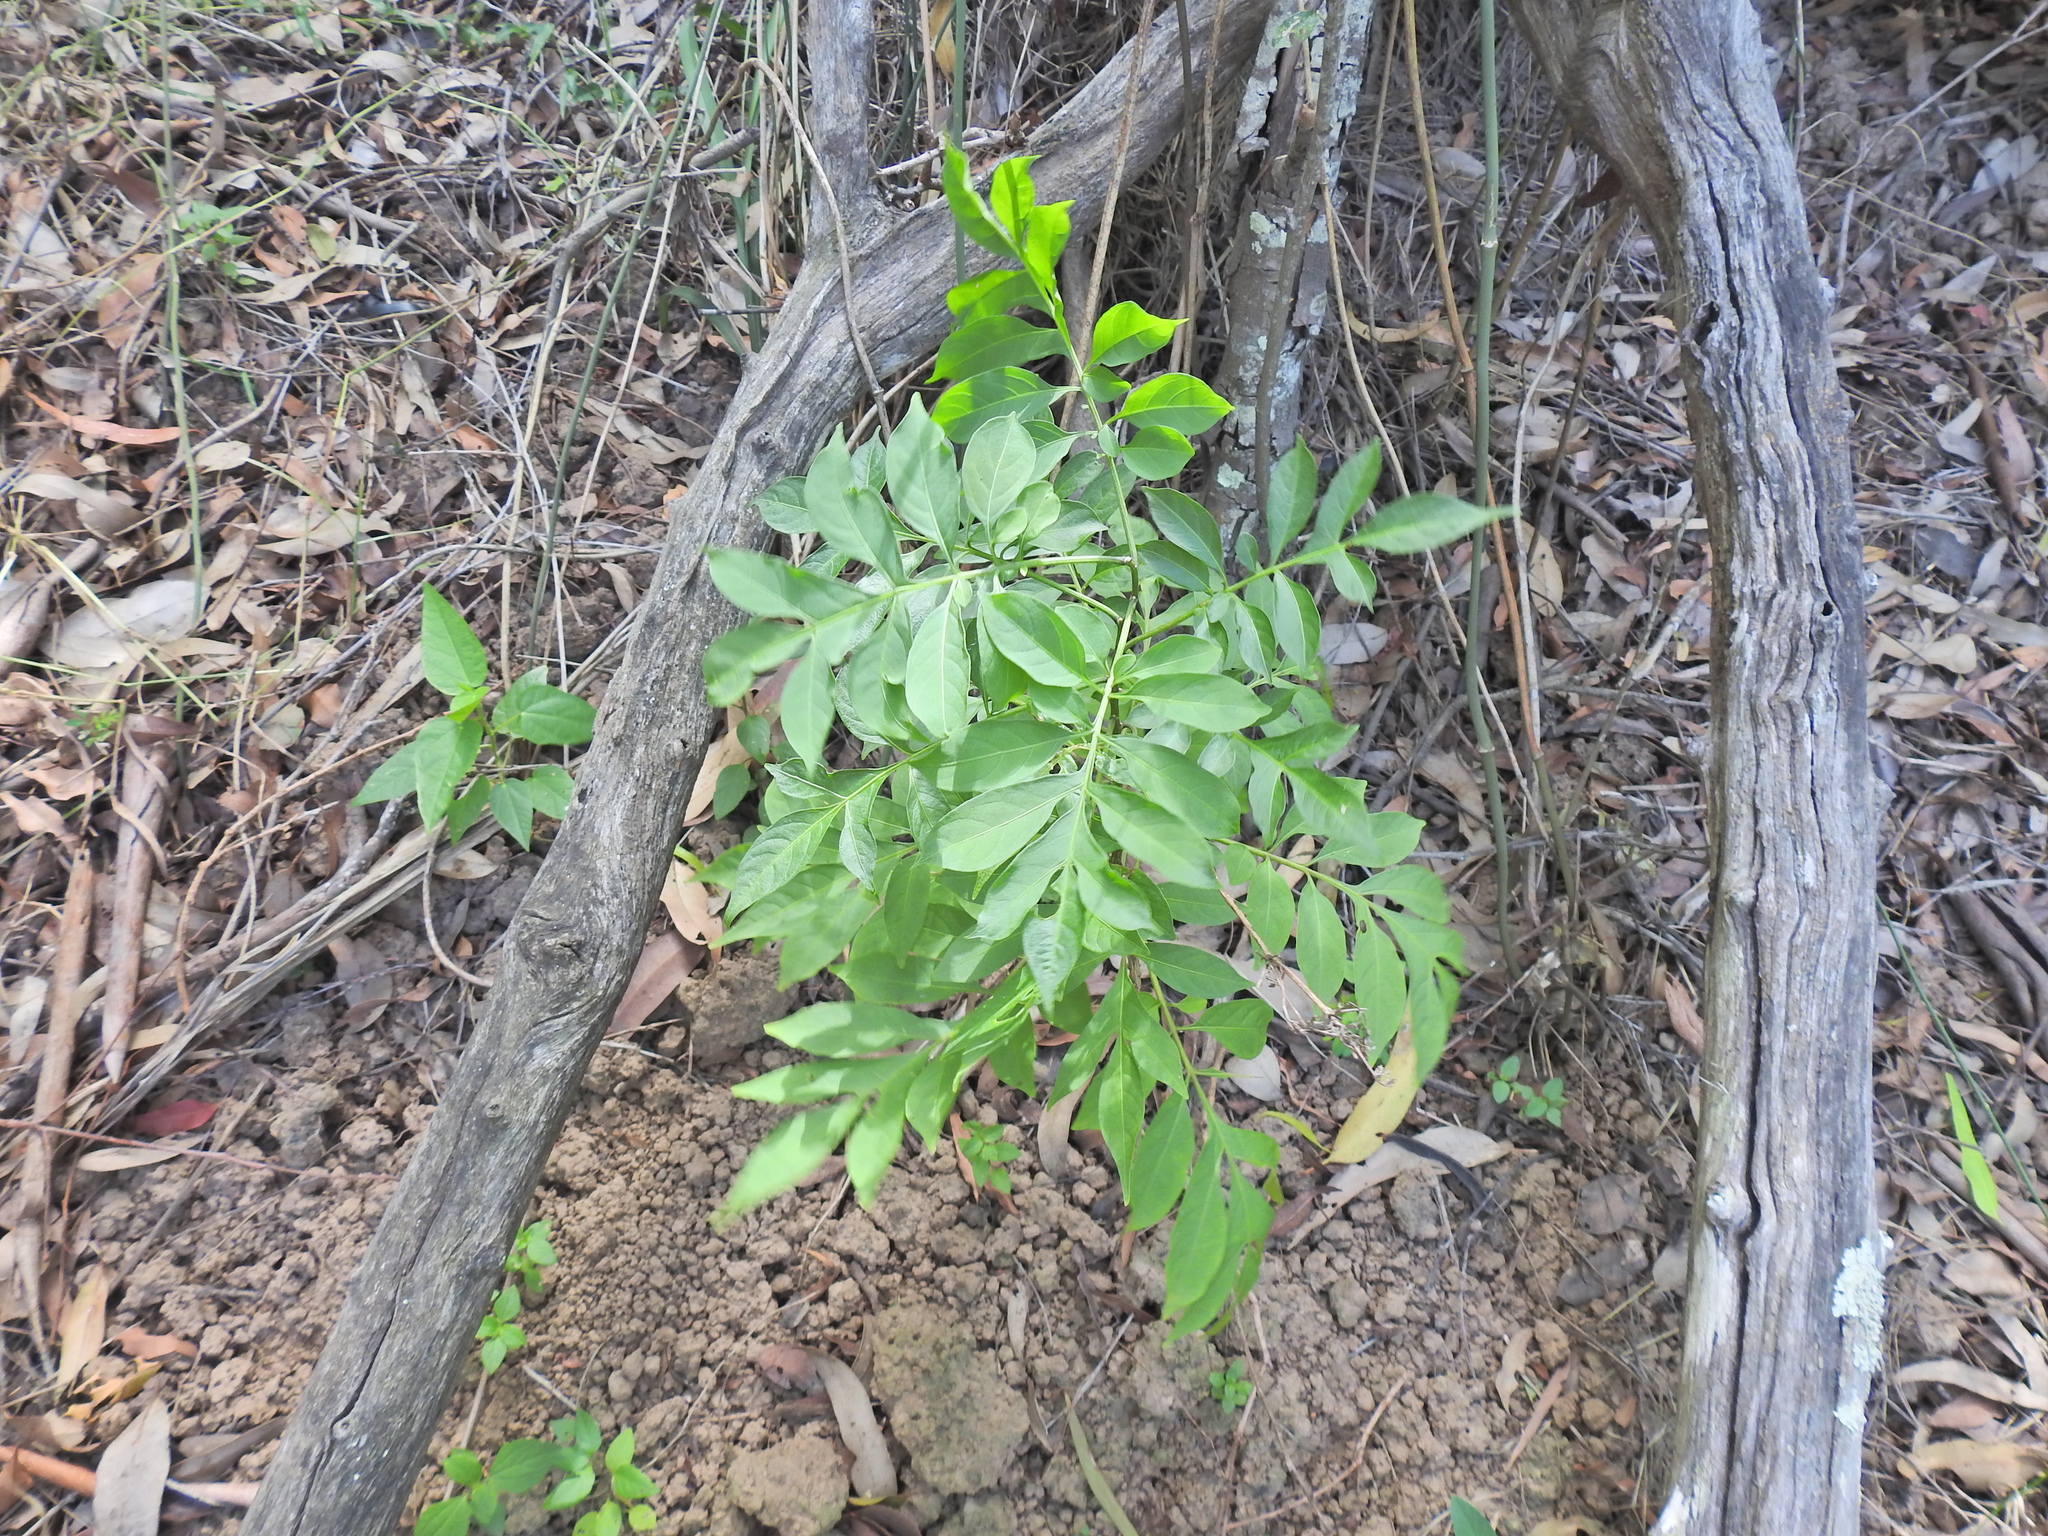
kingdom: Plantae
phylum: Tracheophyta
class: Magnoliopsida
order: Solanales
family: Solanaceae
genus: Solanum
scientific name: Solanum seaforthianum
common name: Brazilian nightshade
